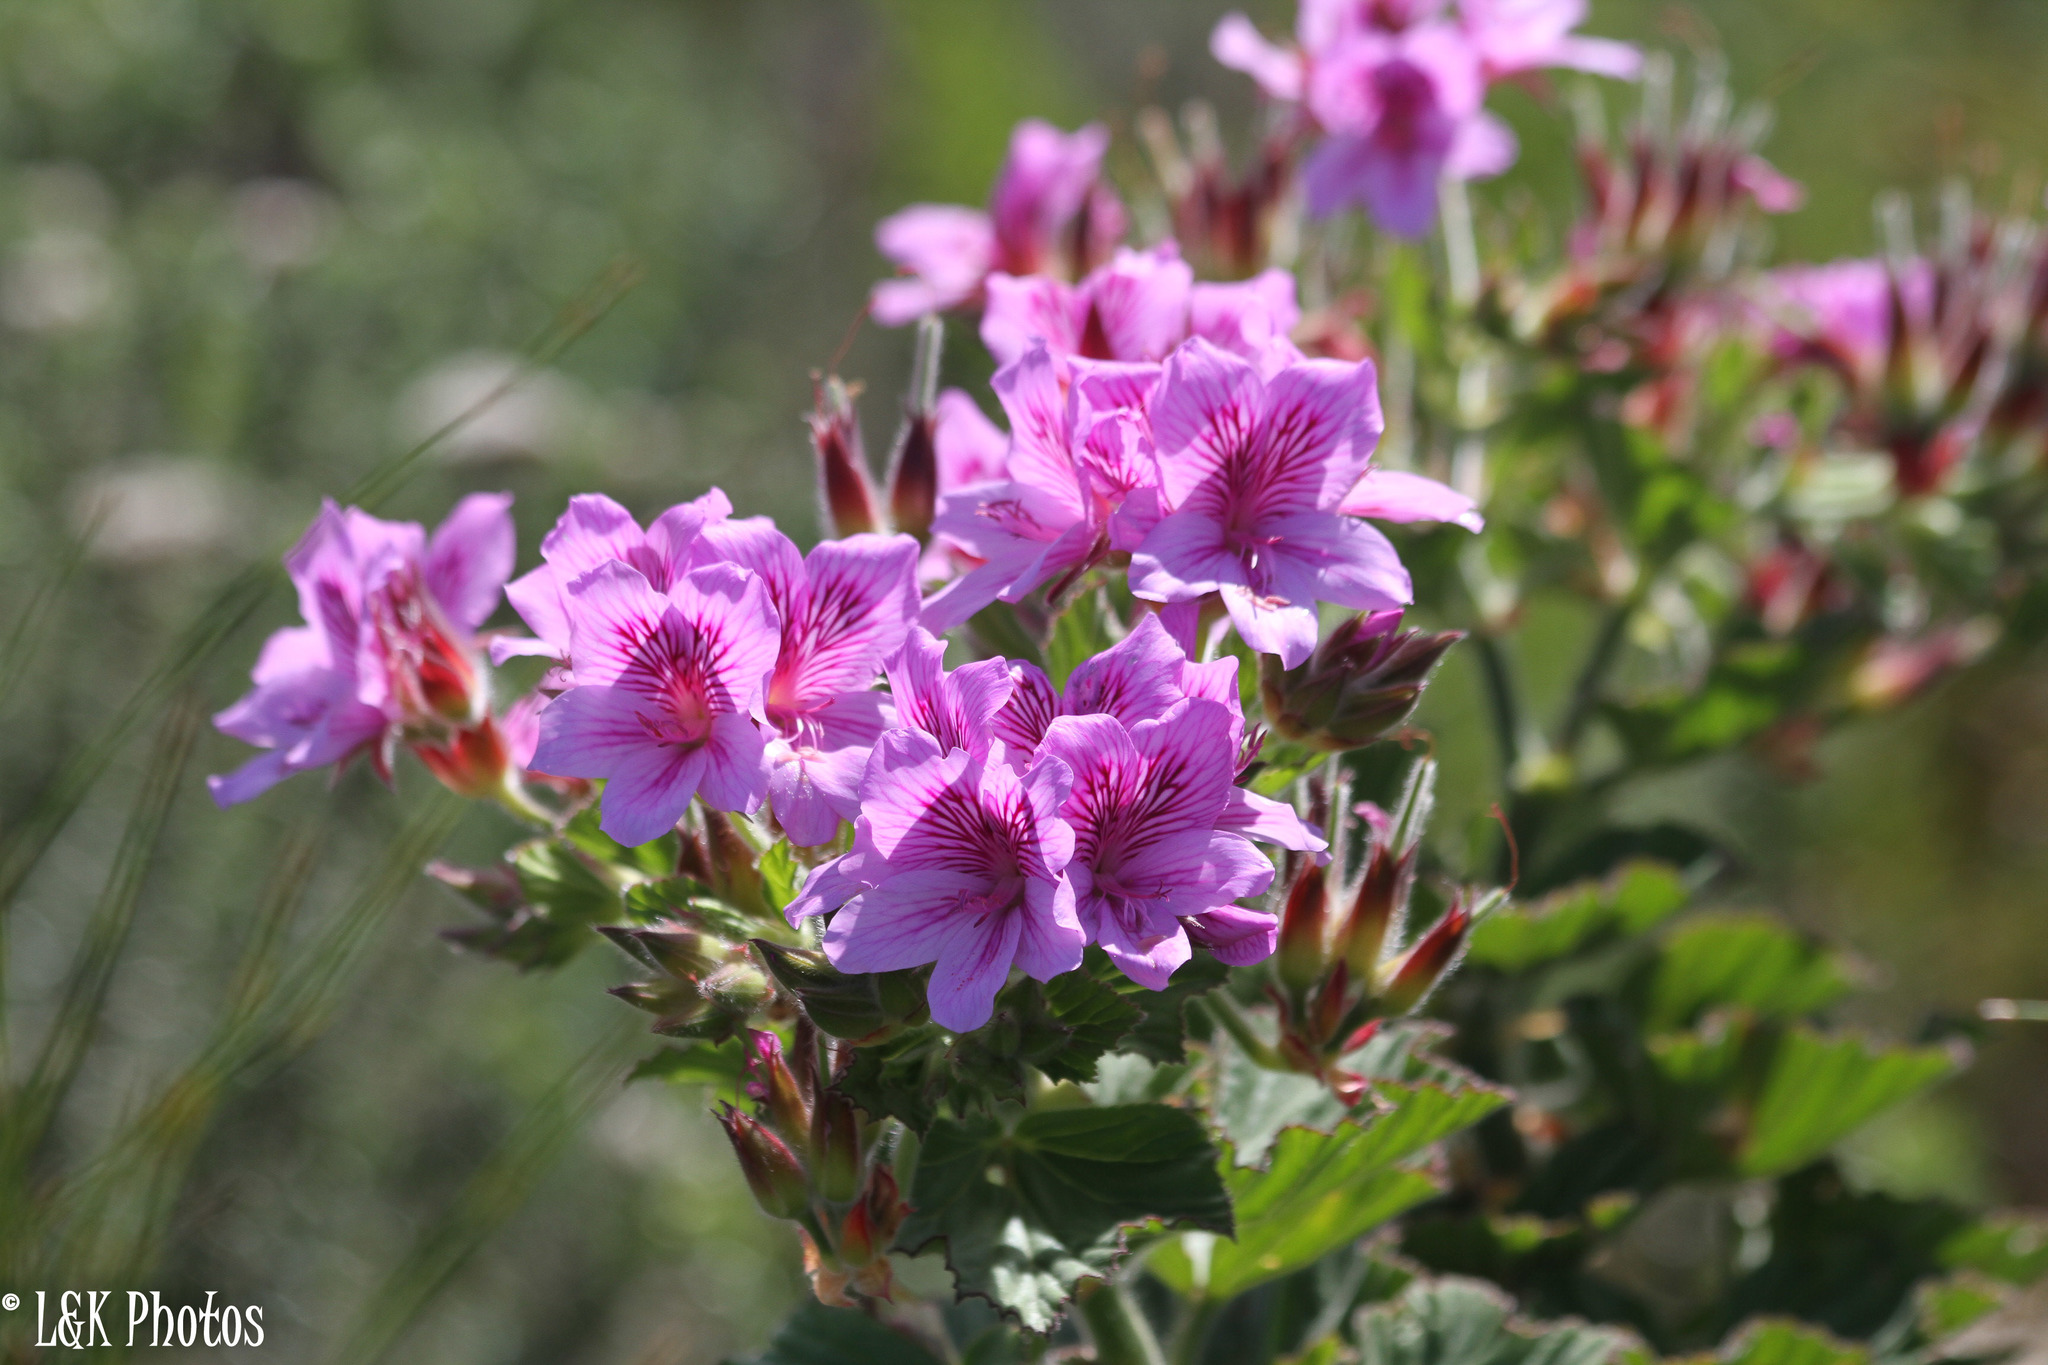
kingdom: Plantae
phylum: Tracheophyta
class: Magnoliopsida
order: Geraniales
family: Geraniaceae
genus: Pelargonium
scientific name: Pelargonium cucullatum
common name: Tree pelargonium
